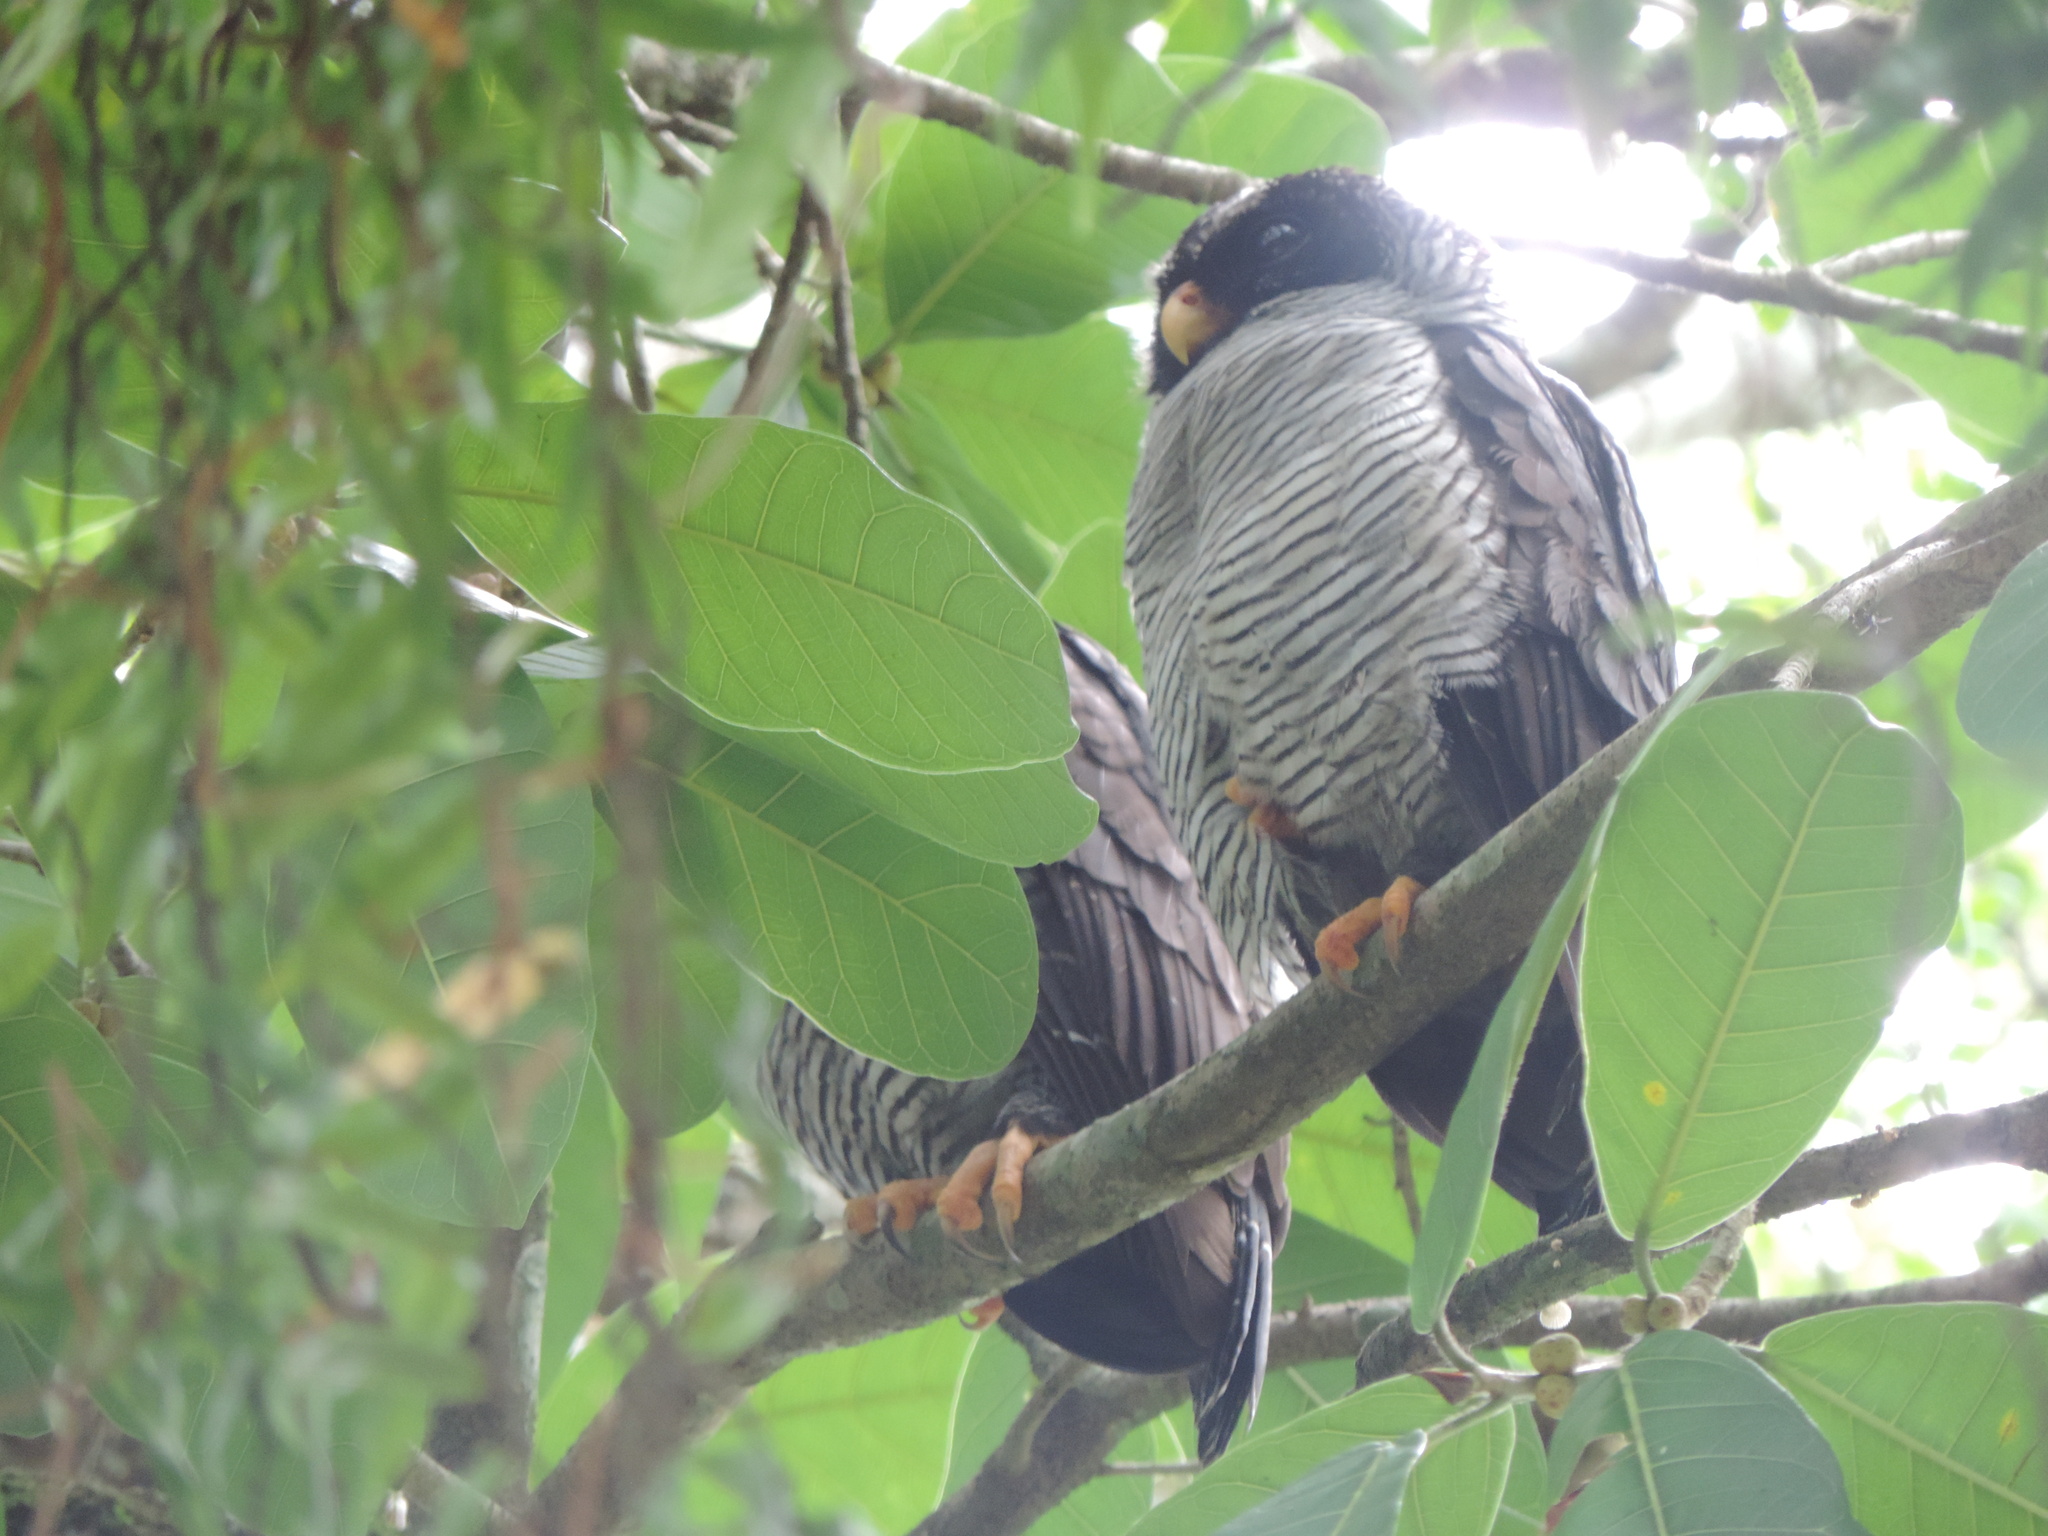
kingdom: Animalia
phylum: Chordata
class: Aves
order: Strigiformes
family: Strigidae
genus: Strix
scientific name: Strix nigrolineata
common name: Black-and-white owl
